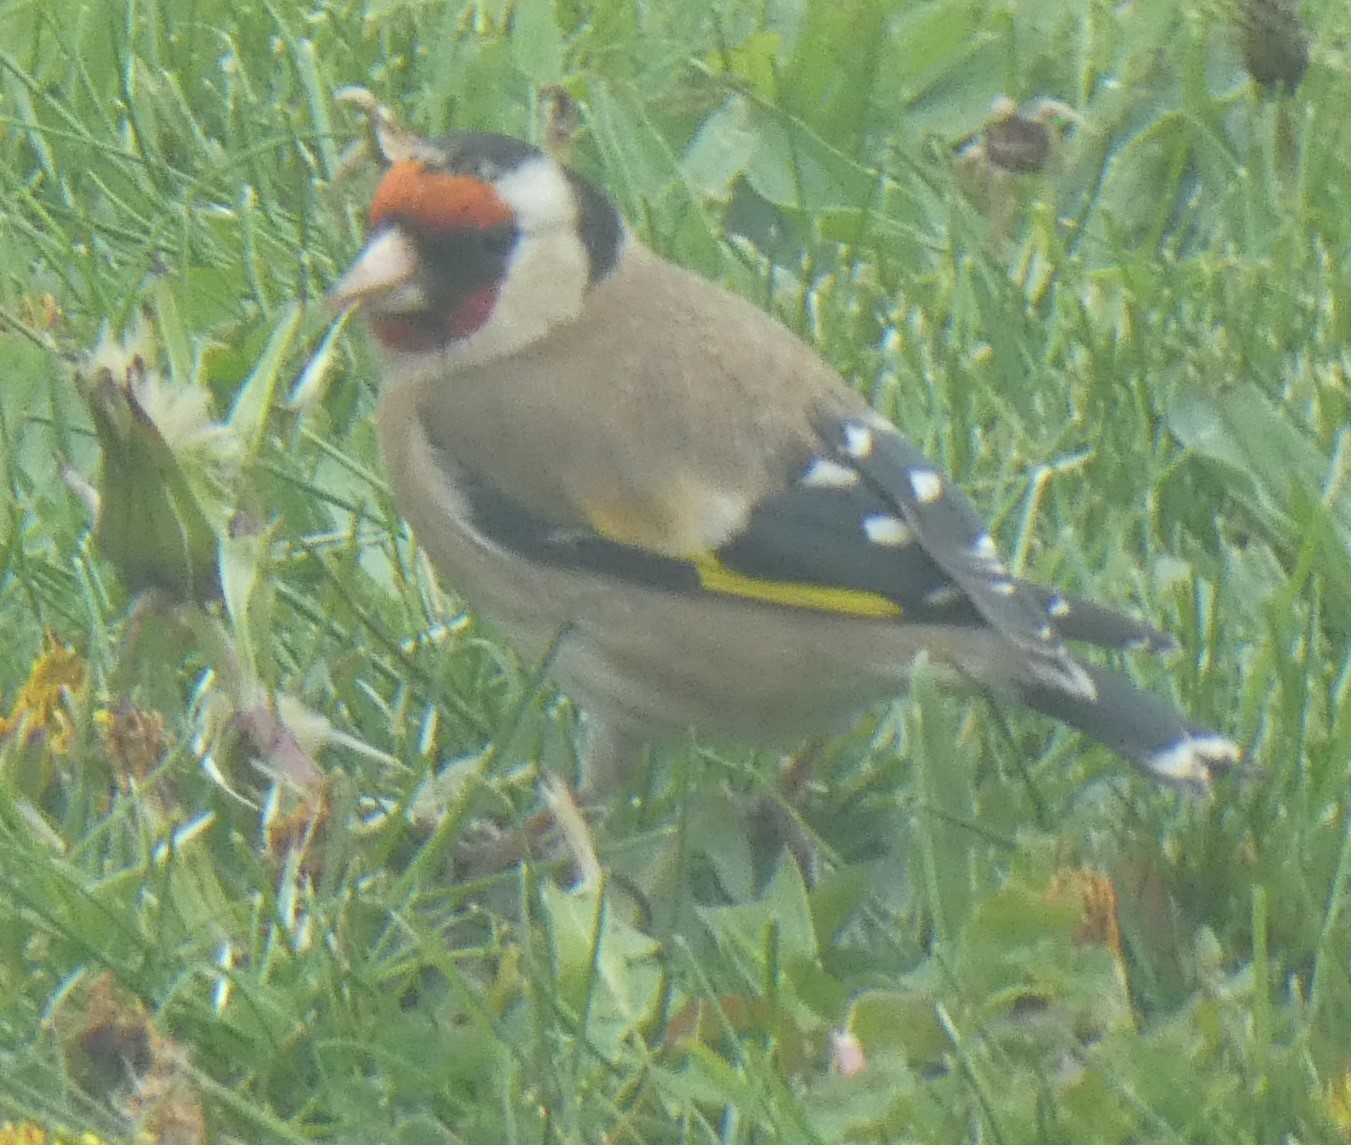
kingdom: Animalia
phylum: Chordata
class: Aves
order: Passeriformes
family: Fringillidae
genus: Carduelis
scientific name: Carduelis carduelis
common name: European goldfinch
